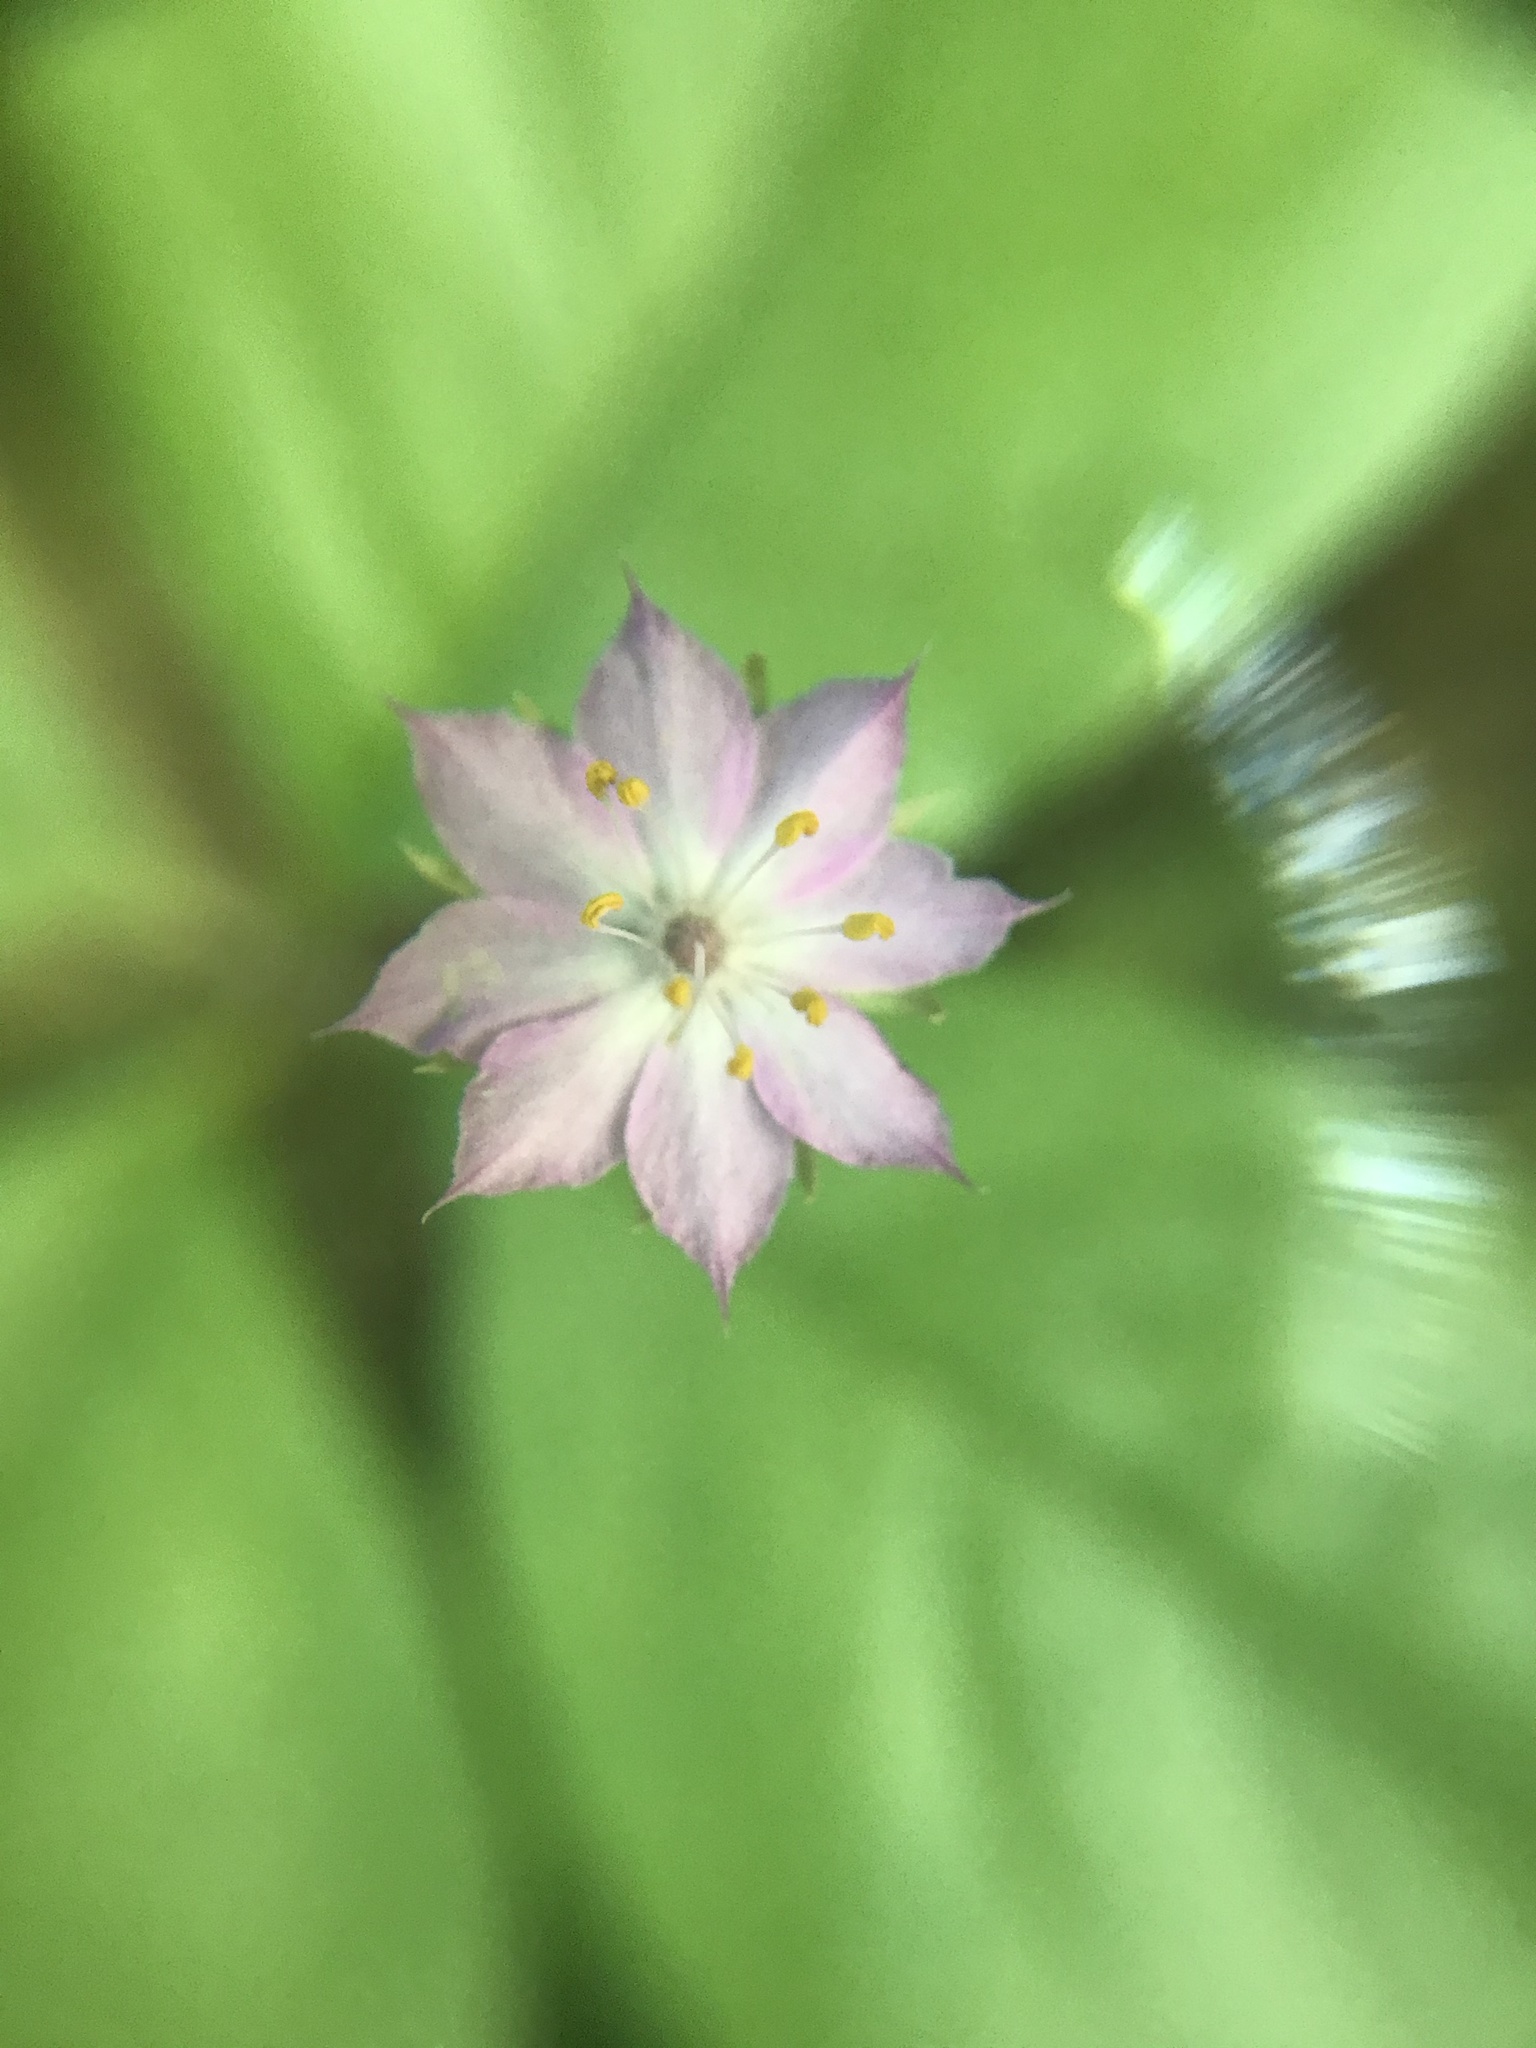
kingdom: Plantae
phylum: Tracheophyta
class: Magnoliopsida
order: Ericales
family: Primulaceae
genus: Lysimachia
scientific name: Lysimachia latifolia
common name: Pacific starflower
